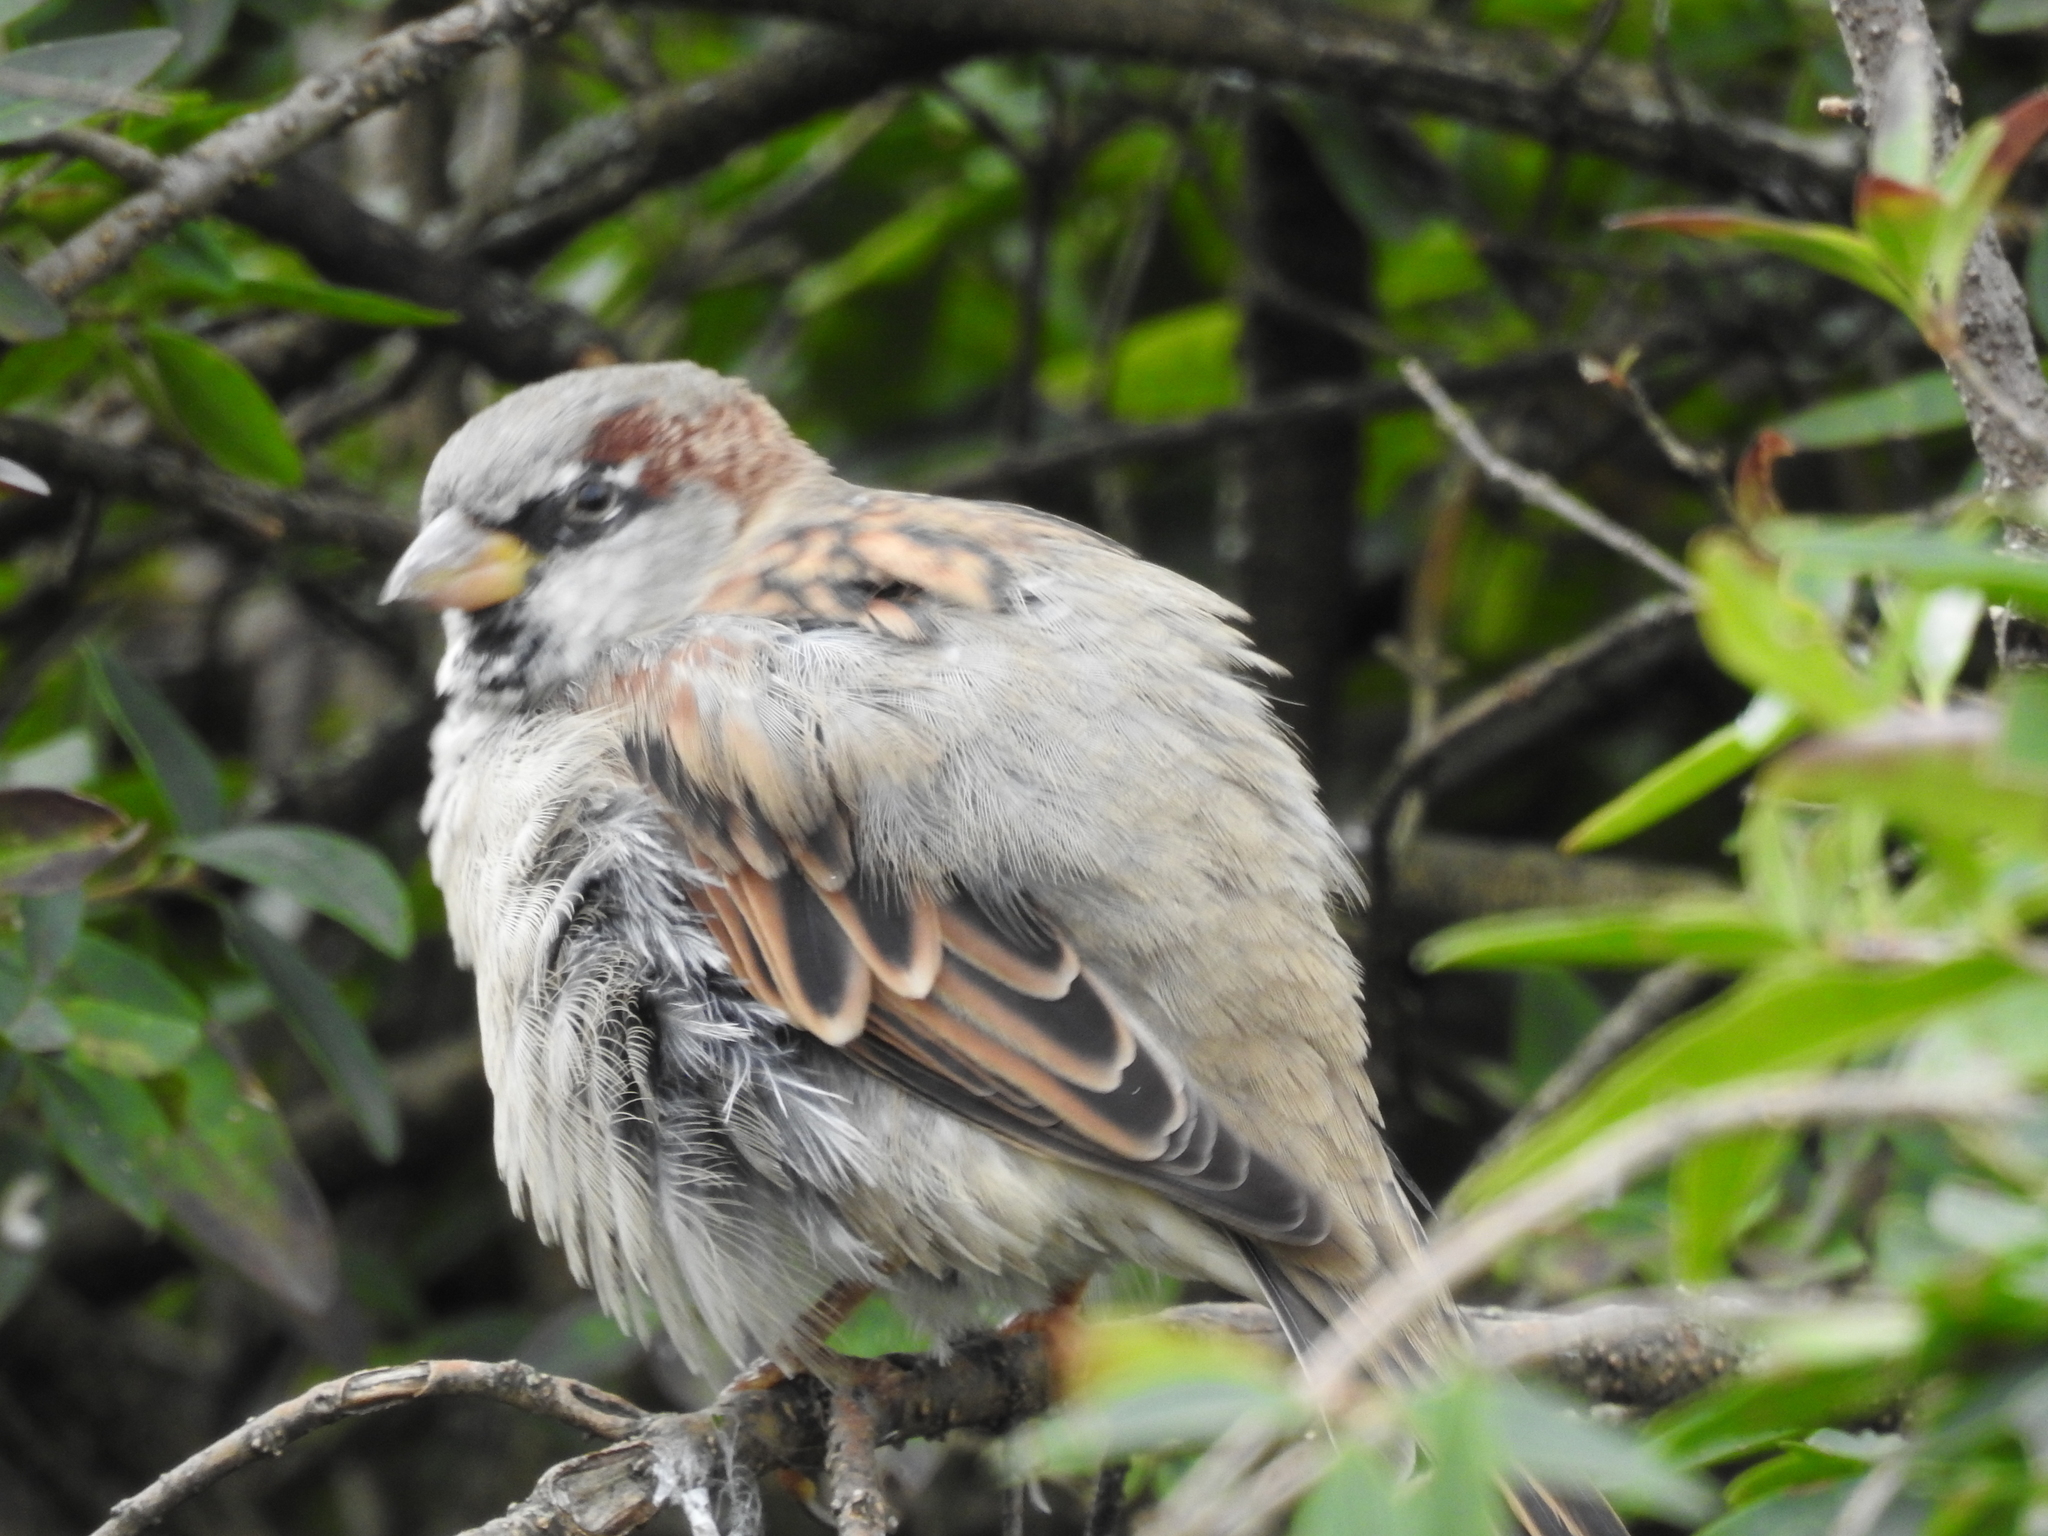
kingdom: Animalia
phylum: Chordata
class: Aves
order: Passeriformes
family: Passeridae
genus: Passer
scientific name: Passer domesticus
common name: House sparrow
